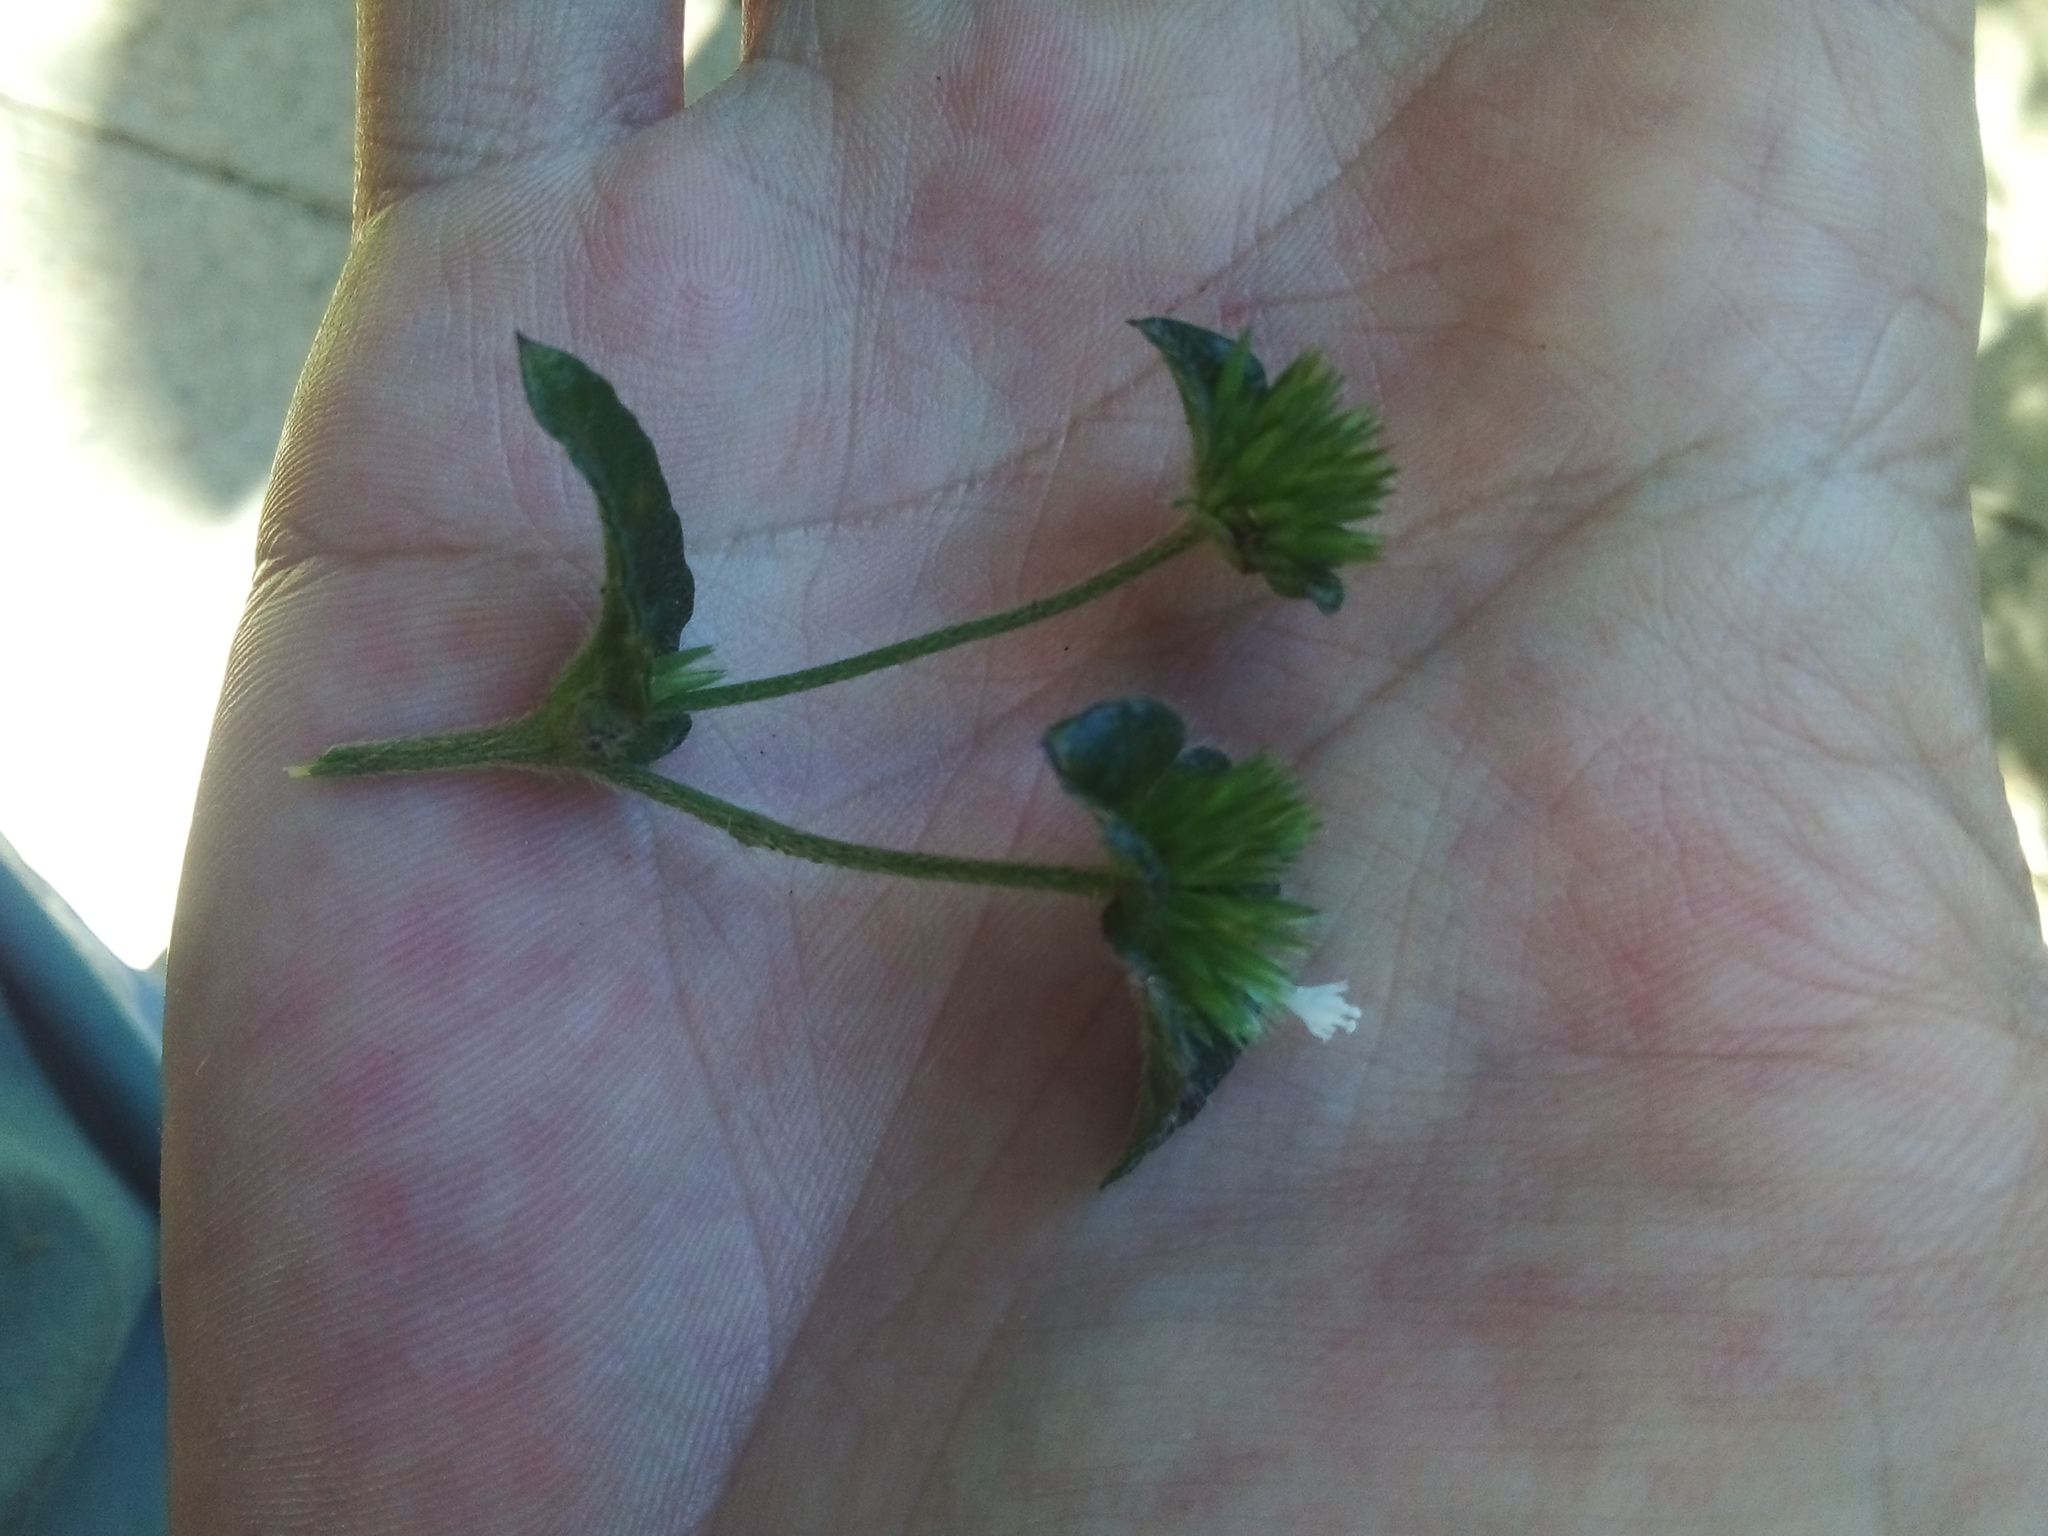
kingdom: Plantae
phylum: Tracheophyta
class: Magnoliopsida
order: Asterales
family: Asteraceae
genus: Elephantopus
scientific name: Elephantopus mollis
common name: Soft elephantsfoot
